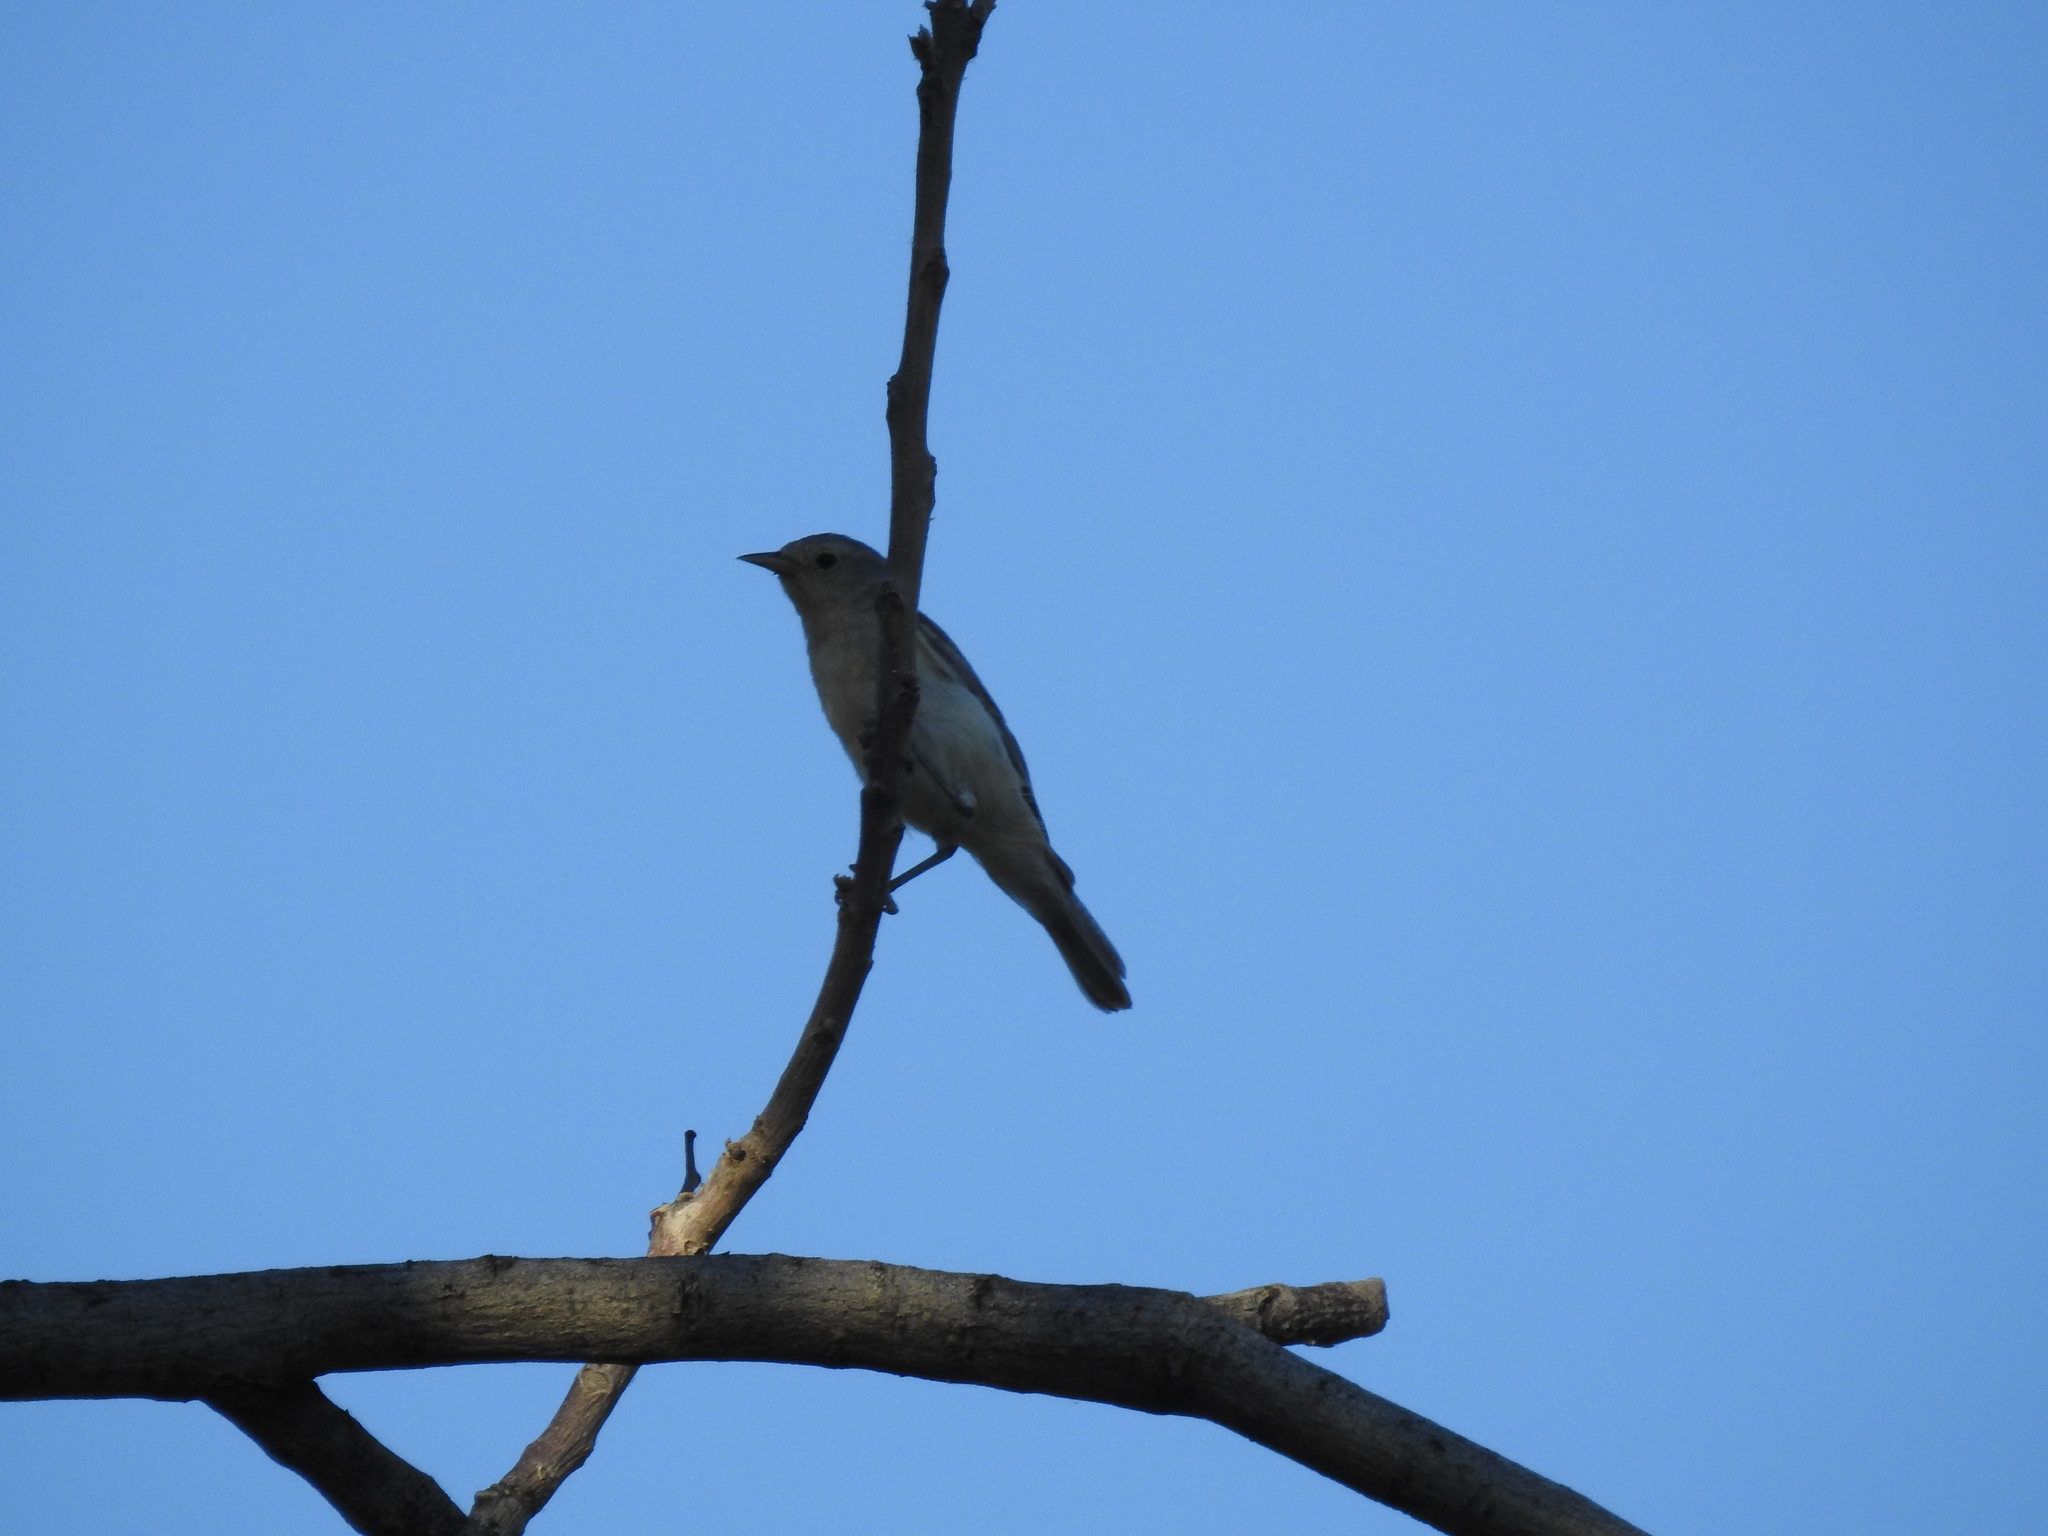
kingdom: Animalia
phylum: Chordata
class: Aves
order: Passeriformes
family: Parulidae
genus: Leiothlypis
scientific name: Leiothlypis luciae
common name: Lucy's warbler
